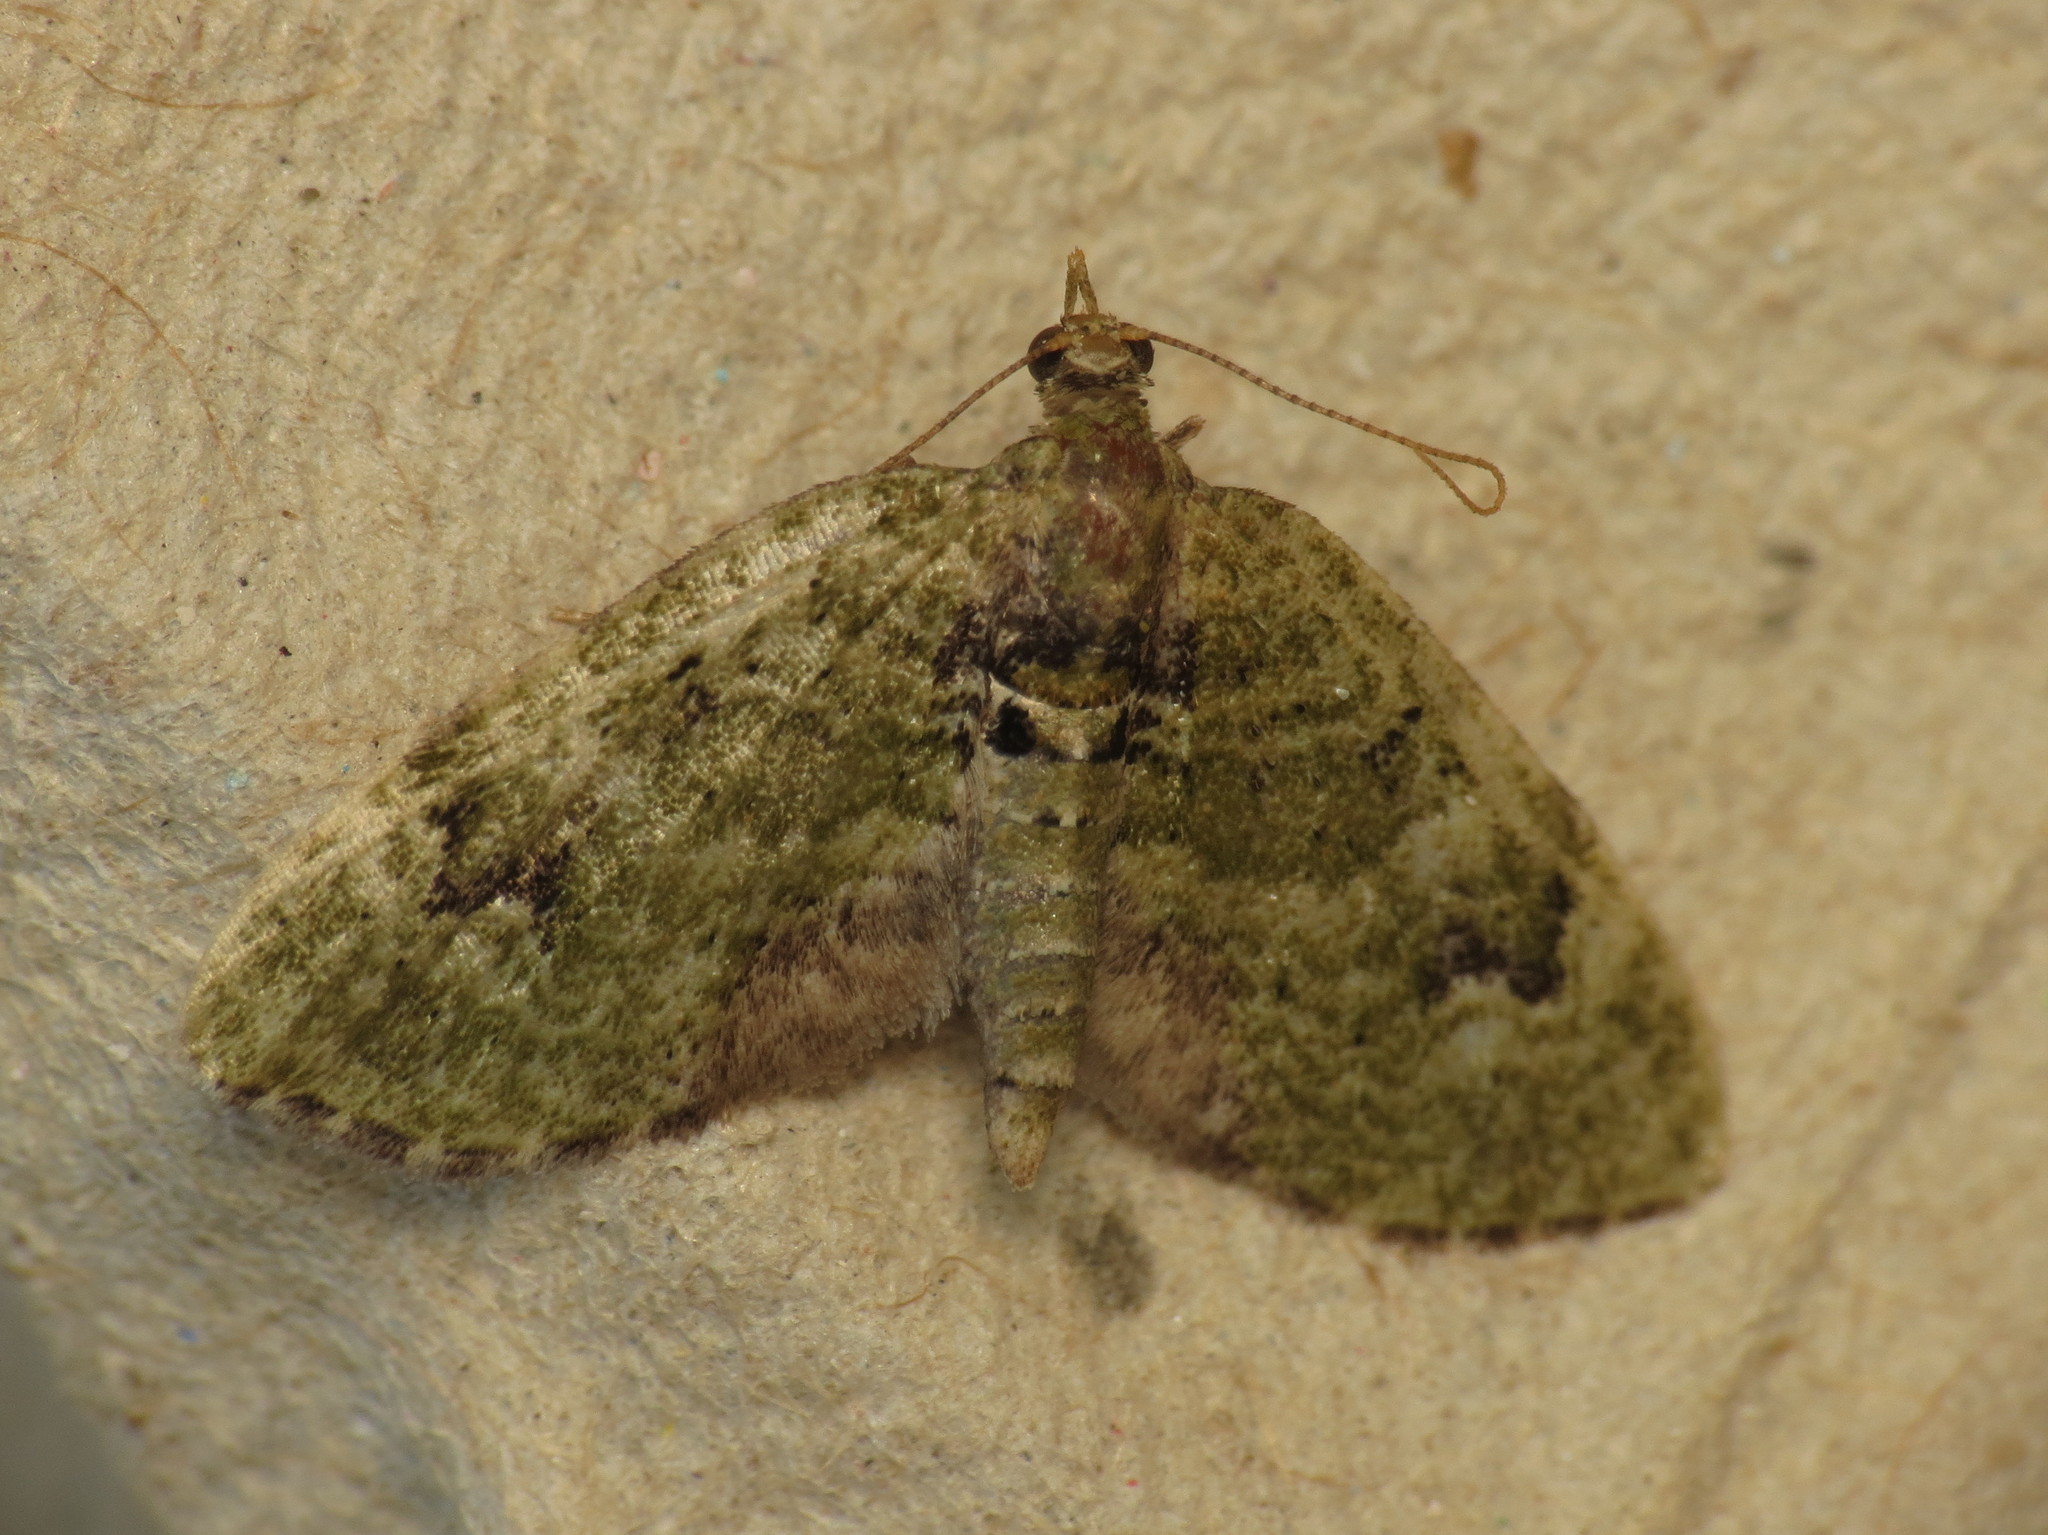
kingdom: Animalia
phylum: Arthropoda
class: Insecta
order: Lepidoptera
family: Geometridae
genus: Chloroclystis
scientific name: Chloroclystis v-ata
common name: V-pug
